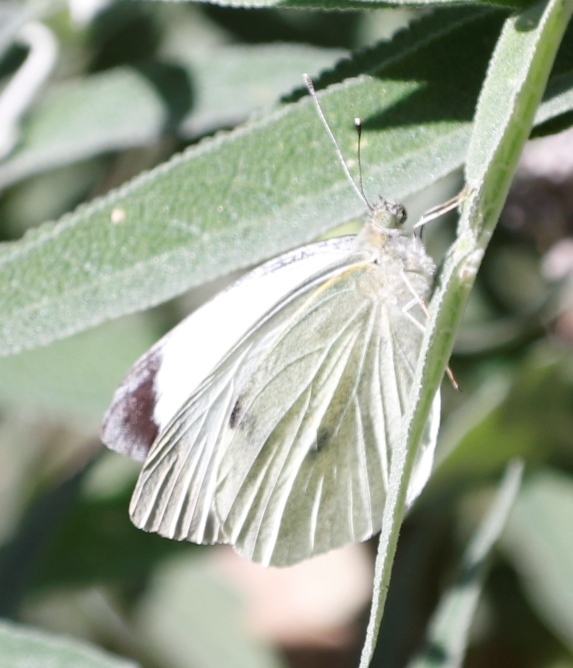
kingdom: Animalia
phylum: Arthropoda
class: Insecta
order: Lepidoptera
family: Pieridae
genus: Pieris
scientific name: Pieris brassicae
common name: Large white
